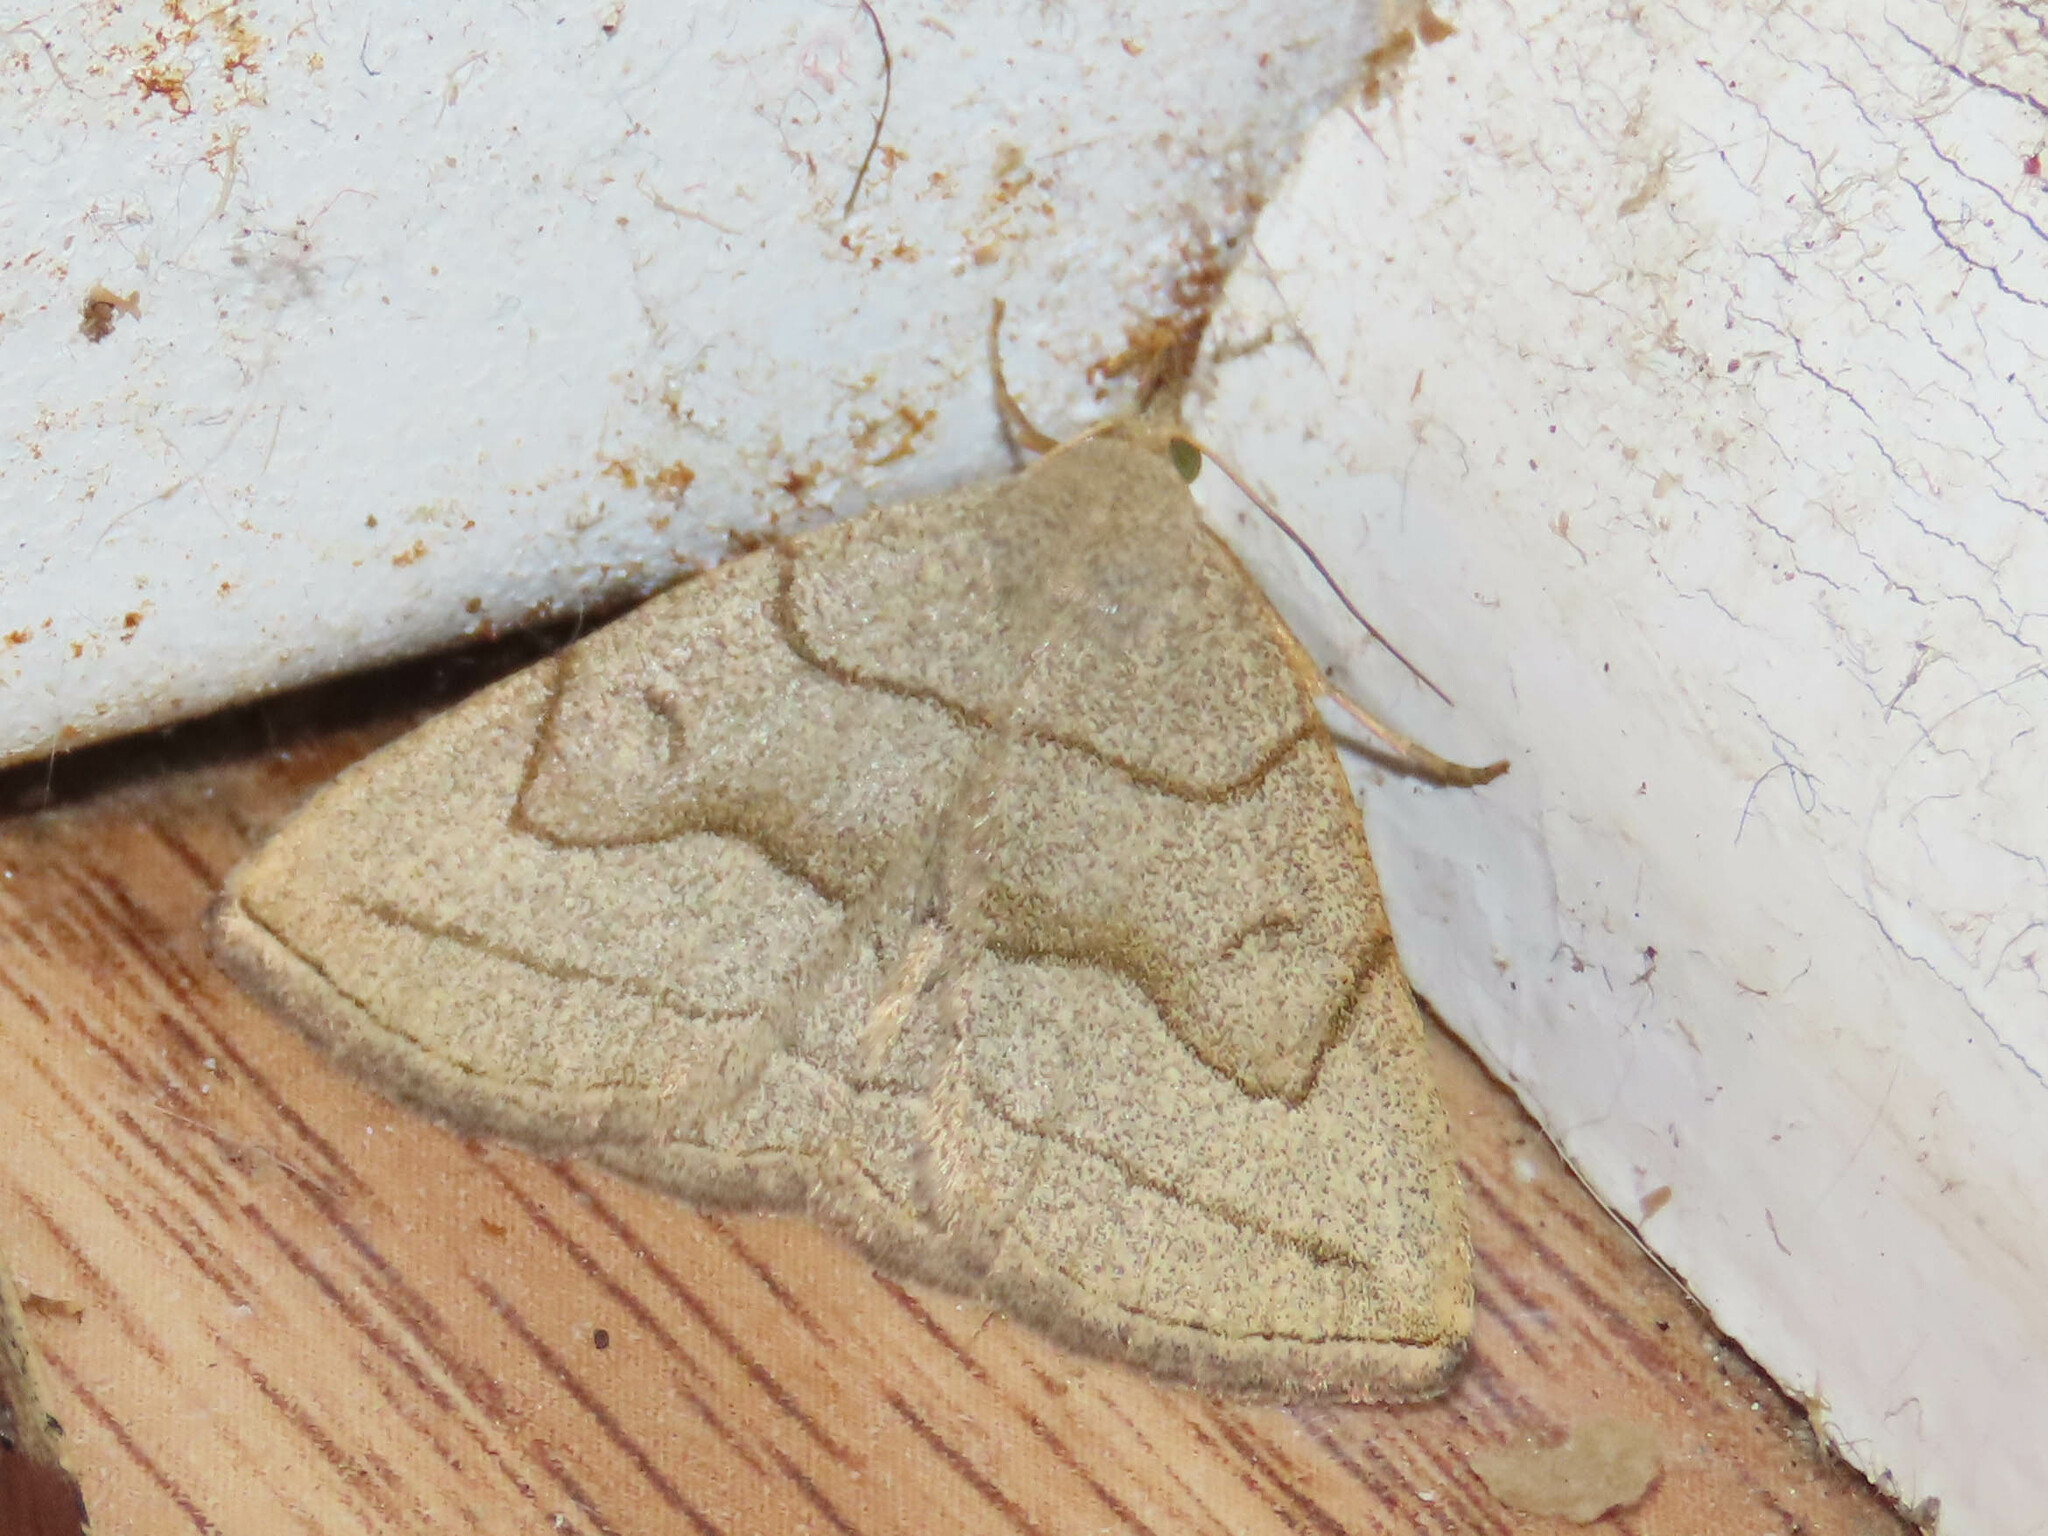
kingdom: Animalia
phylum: Arthropoda
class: Insecta
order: Lepidoptera
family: Erebidae
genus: Zanclognatha
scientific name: Zanclognatha pedipilalis
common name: Grayish fan-foot
